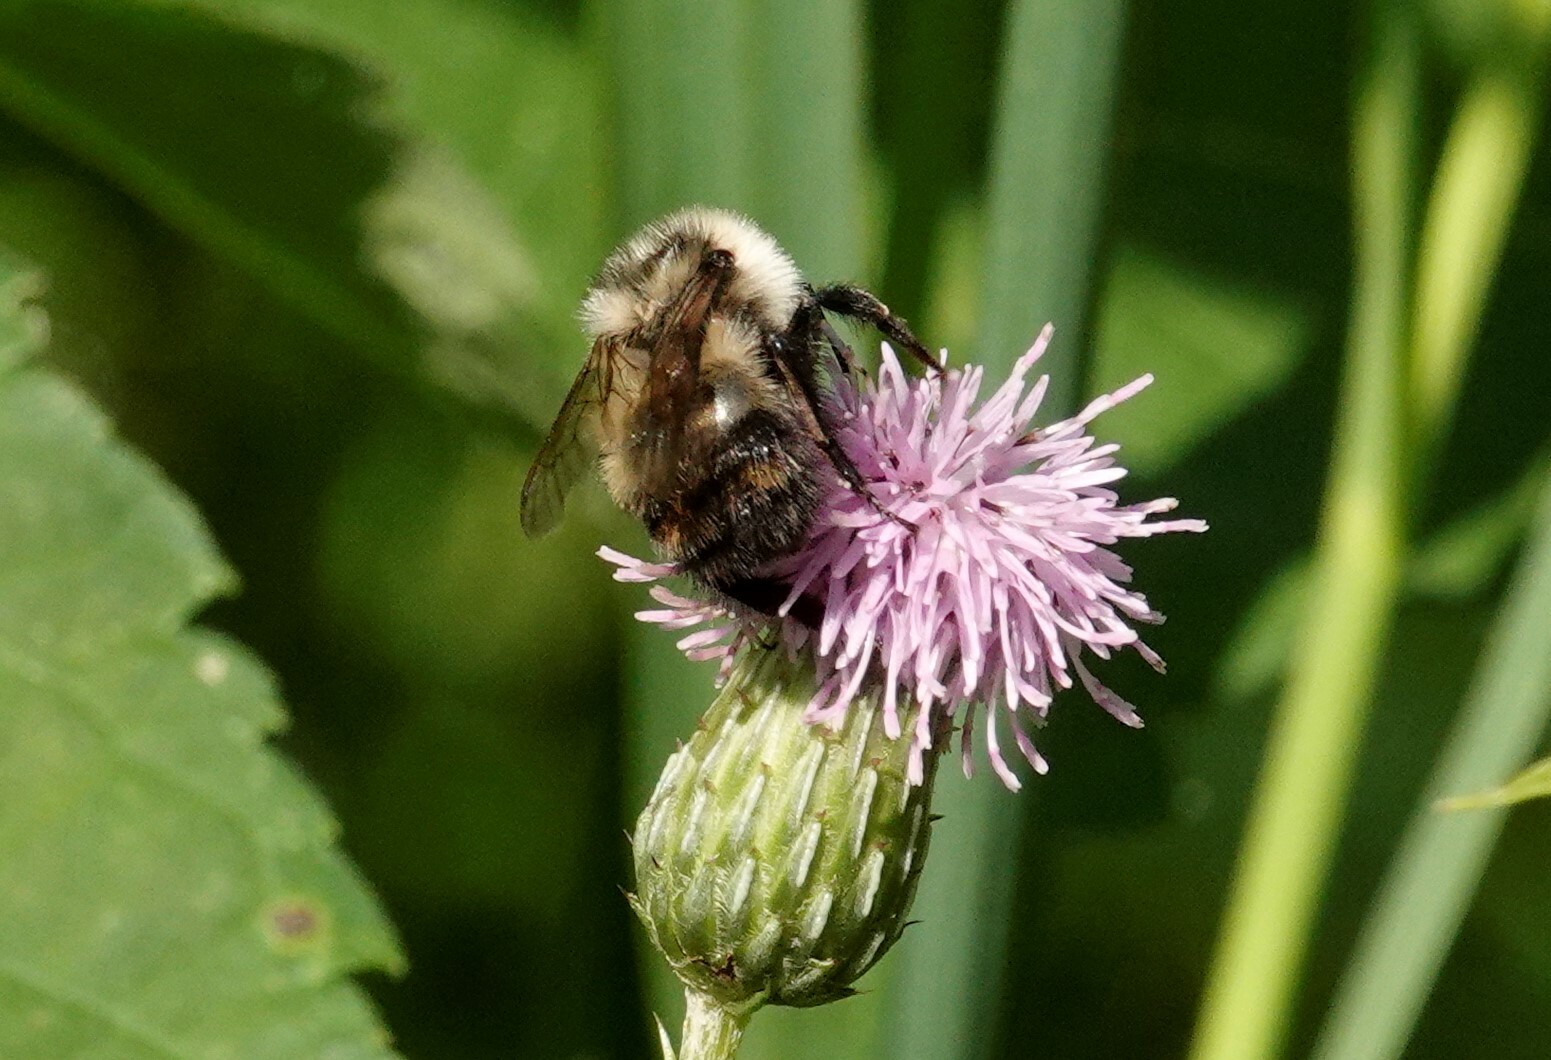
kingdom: Animalia
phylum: Arthropoda
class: Insecta
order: Hymenoptera
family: Apidae
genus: Bombus
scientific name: Bombus rufocinctus
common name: Red-belted bumble bee
